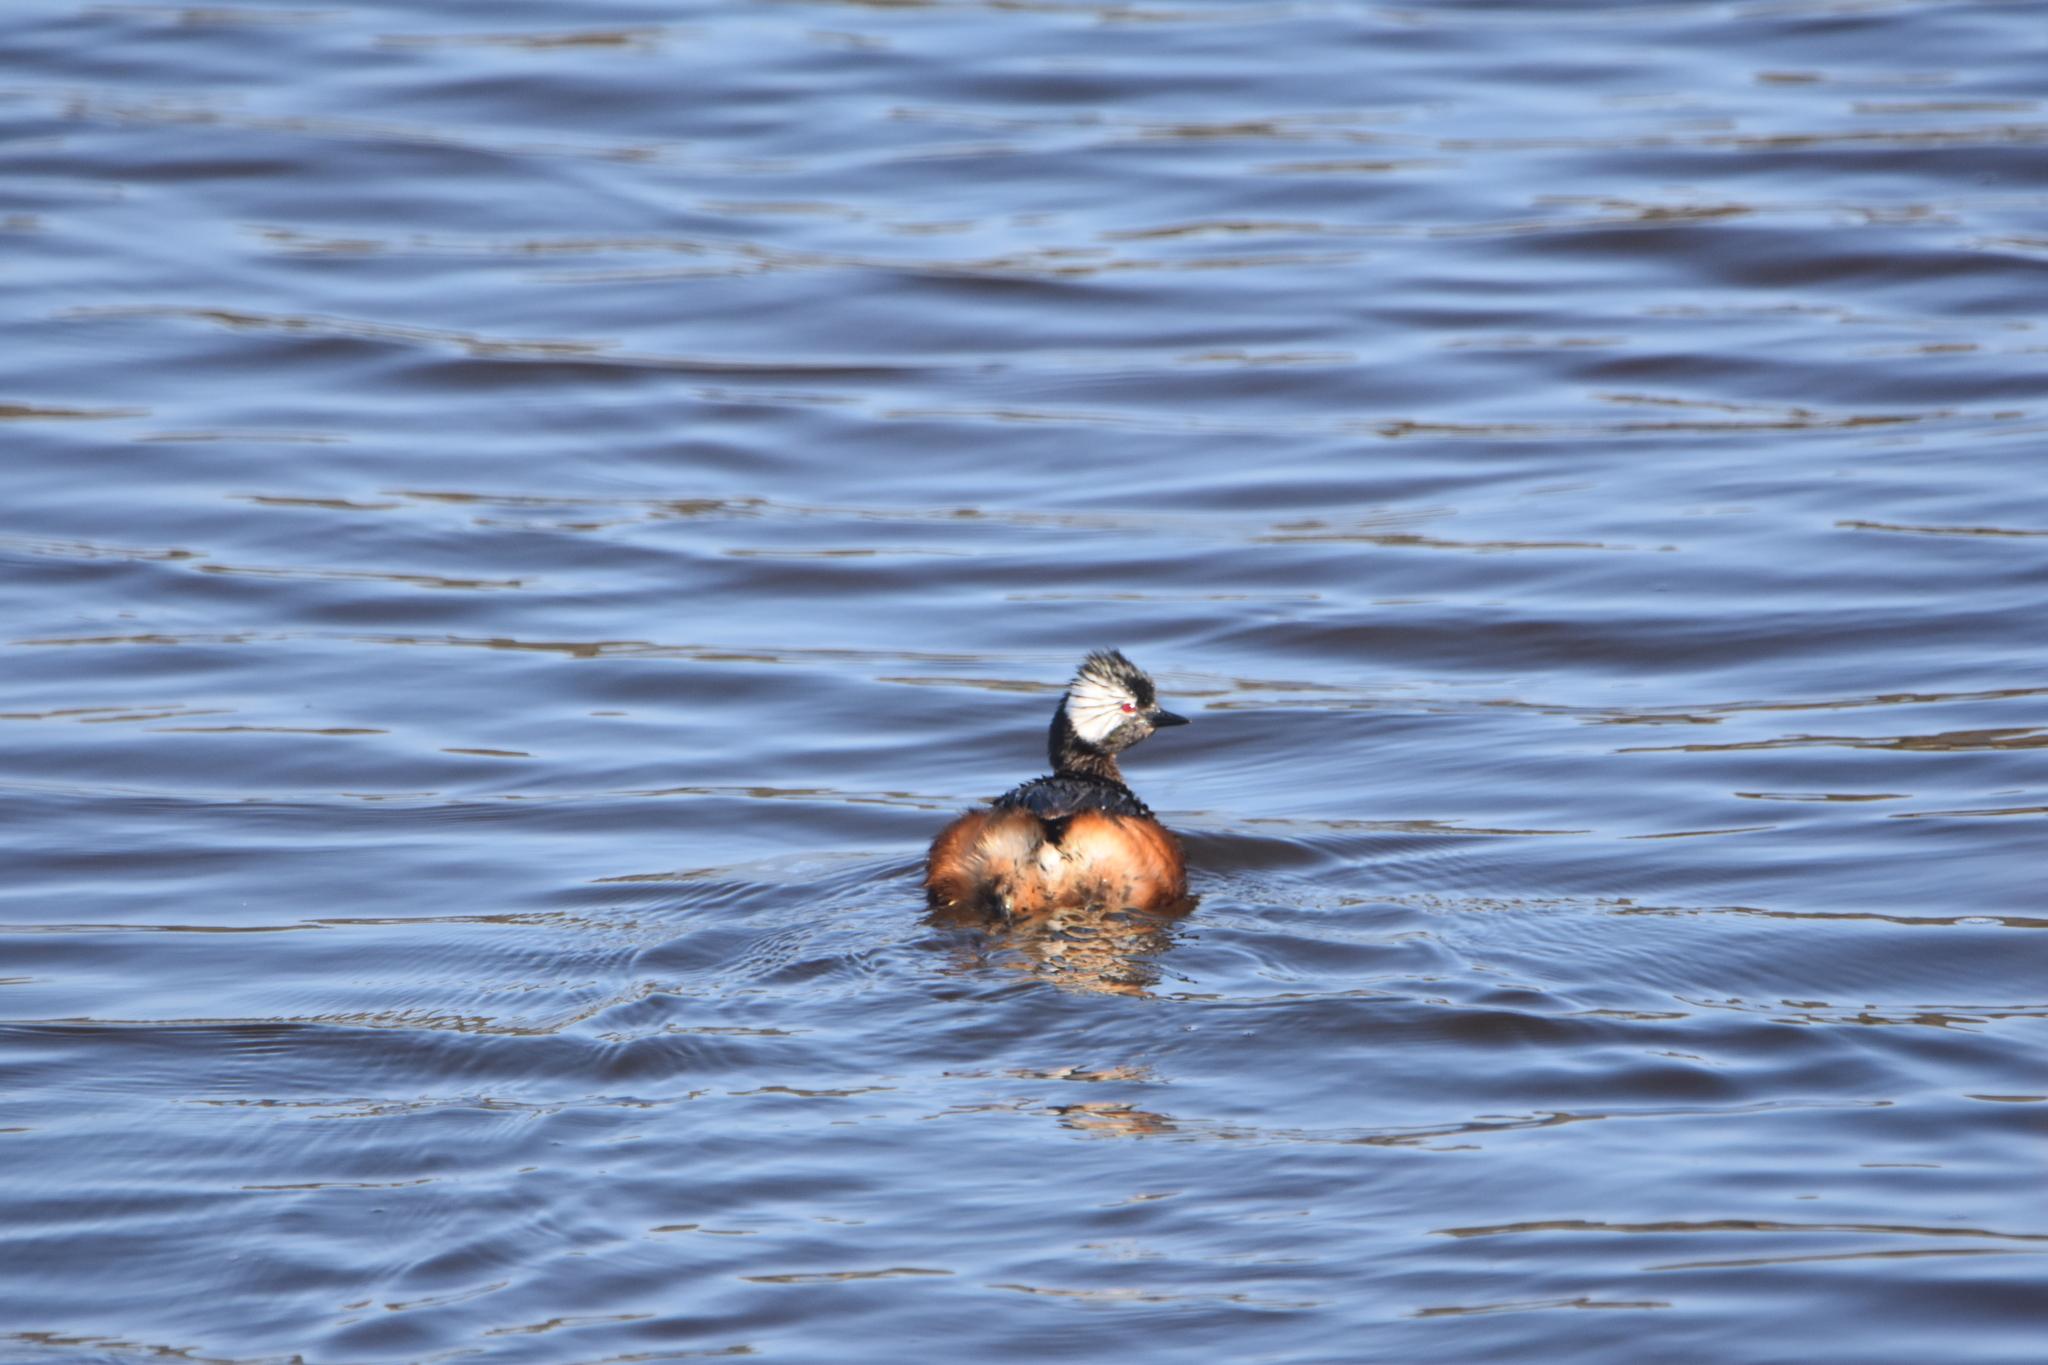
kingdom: Animalia
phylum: Chordata
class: Aves
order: Podicipediformes
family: Podicipedidae
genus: Rollandia
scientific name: Rollandia rolland
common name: White-tufted grebe
